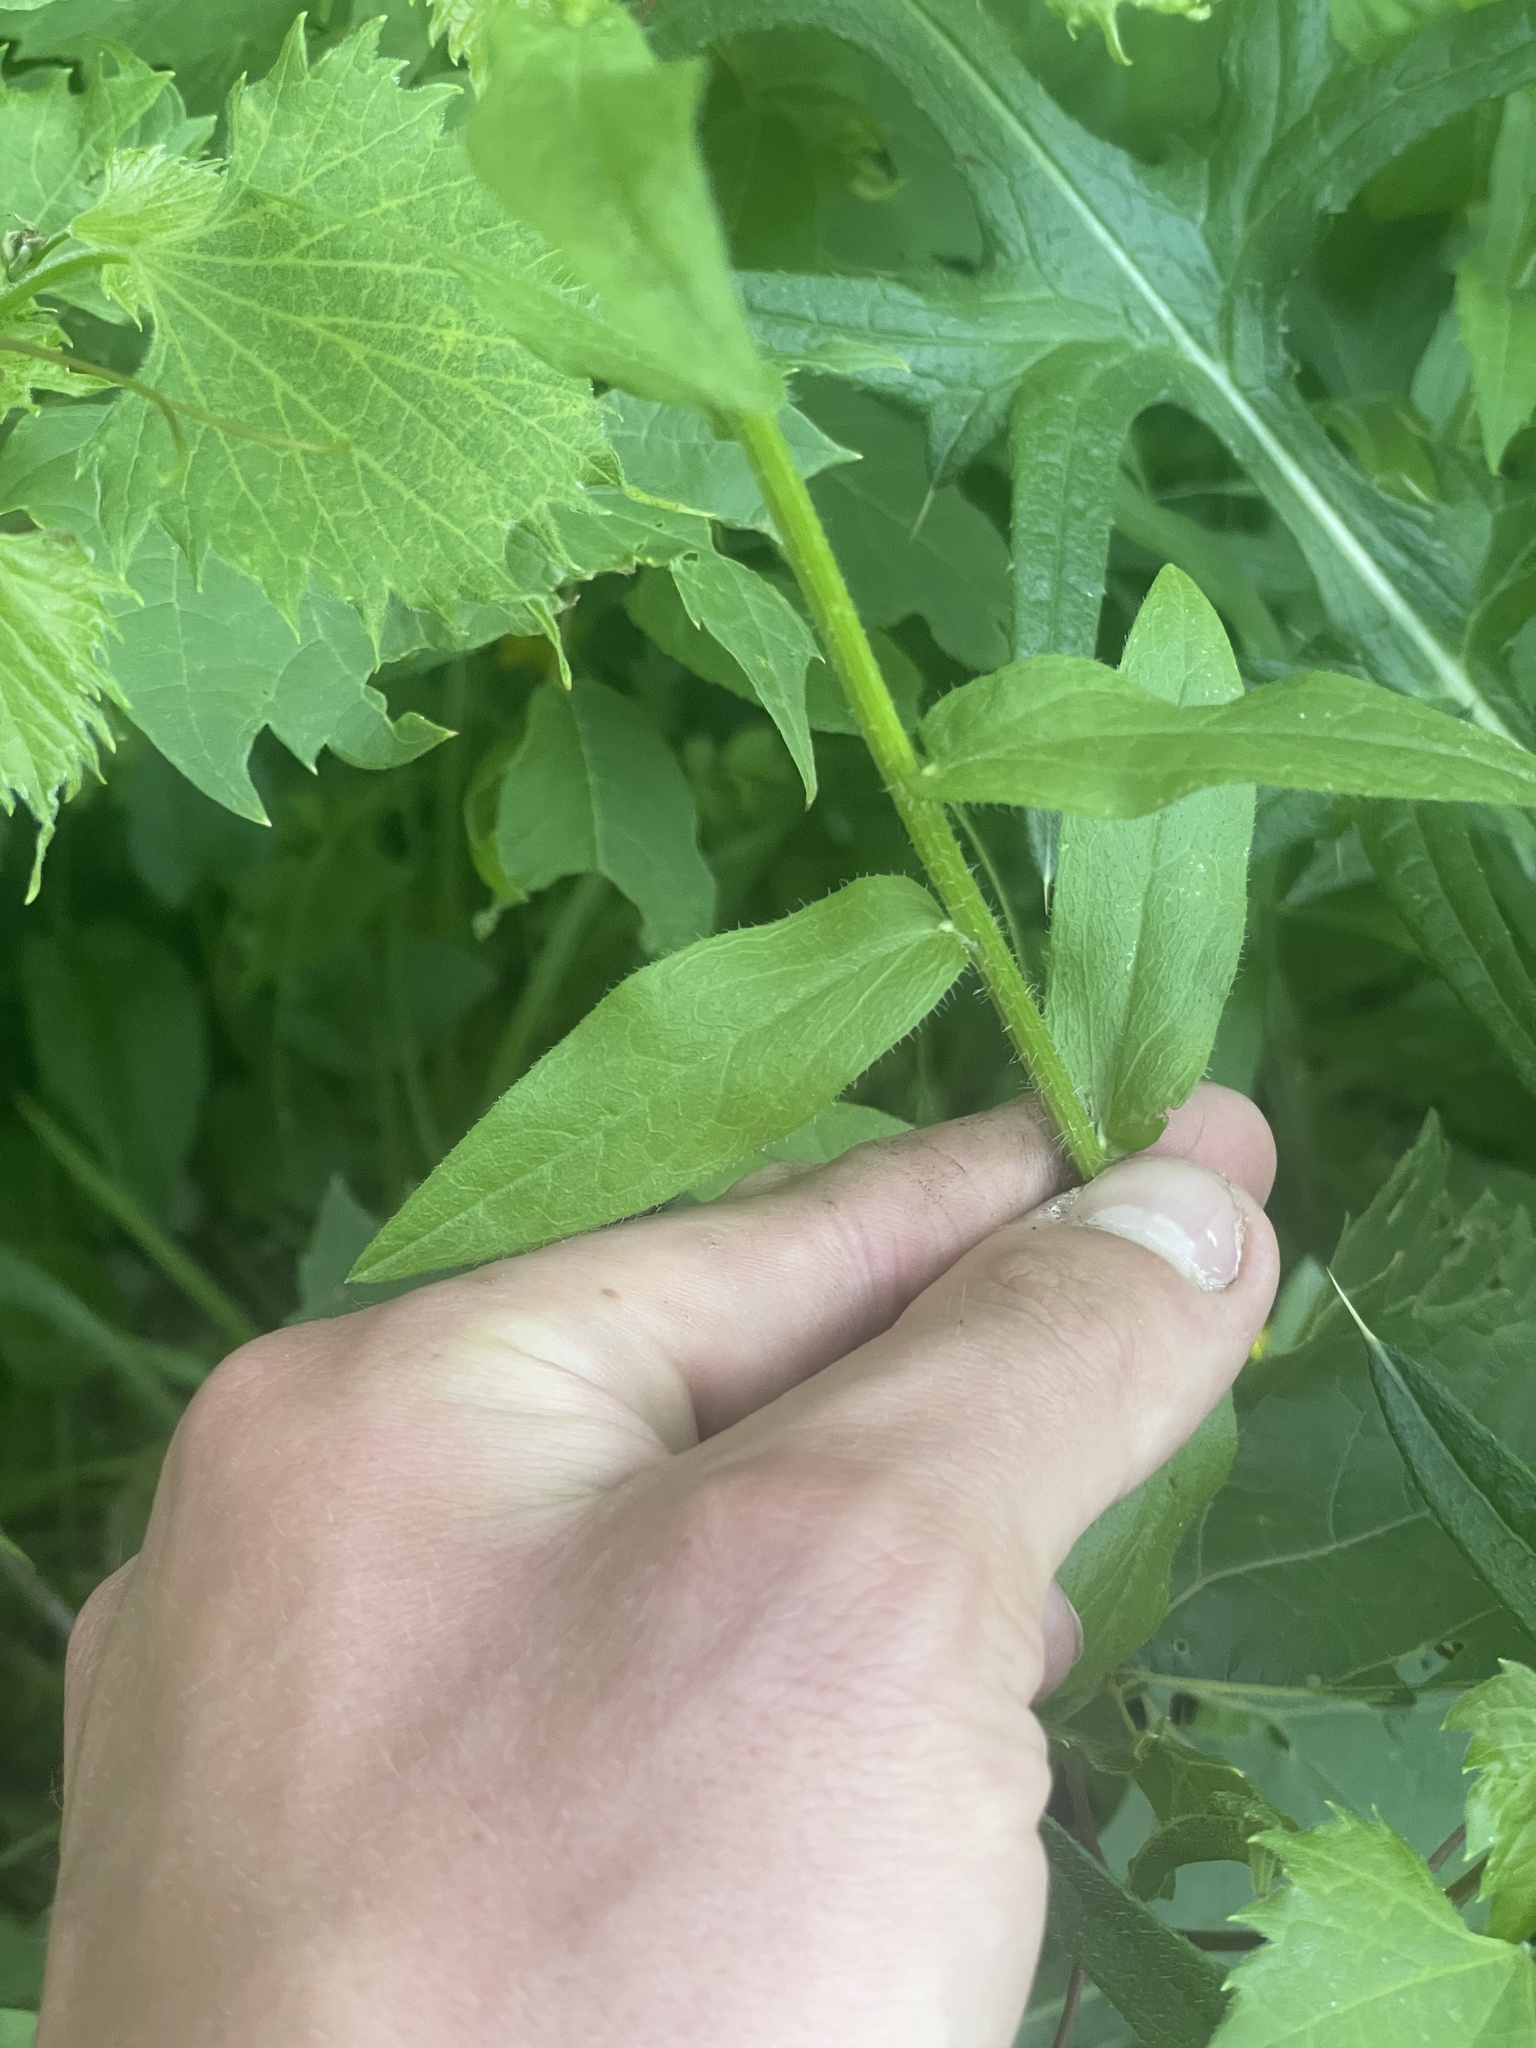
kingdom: Plantae
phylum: Tracheophyta
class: Magnoliopsida
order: Asterales
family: Asteraceae
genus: Erigeron
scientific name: Erigeron annuus
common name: Tall fleabane
